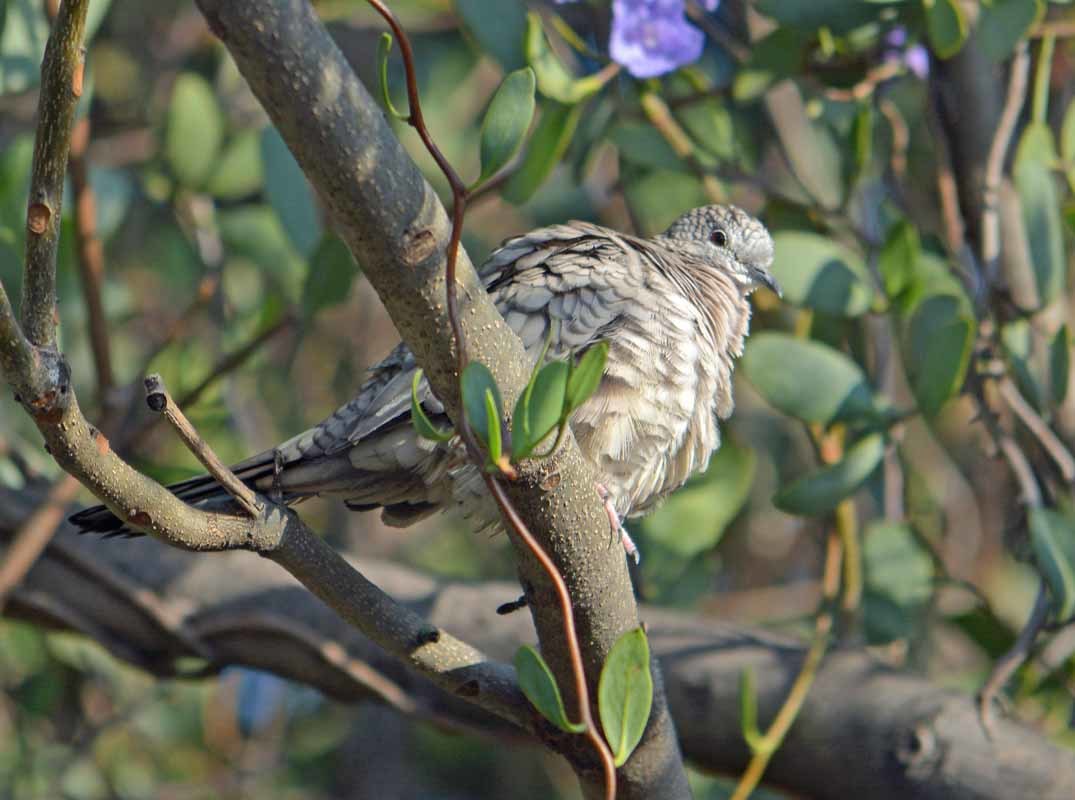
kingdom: Animalia
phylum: Chordata
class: Aves
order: Columbiformes
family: Columbidae
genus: Columbina
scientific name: Columbina inca
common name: Inca dove
